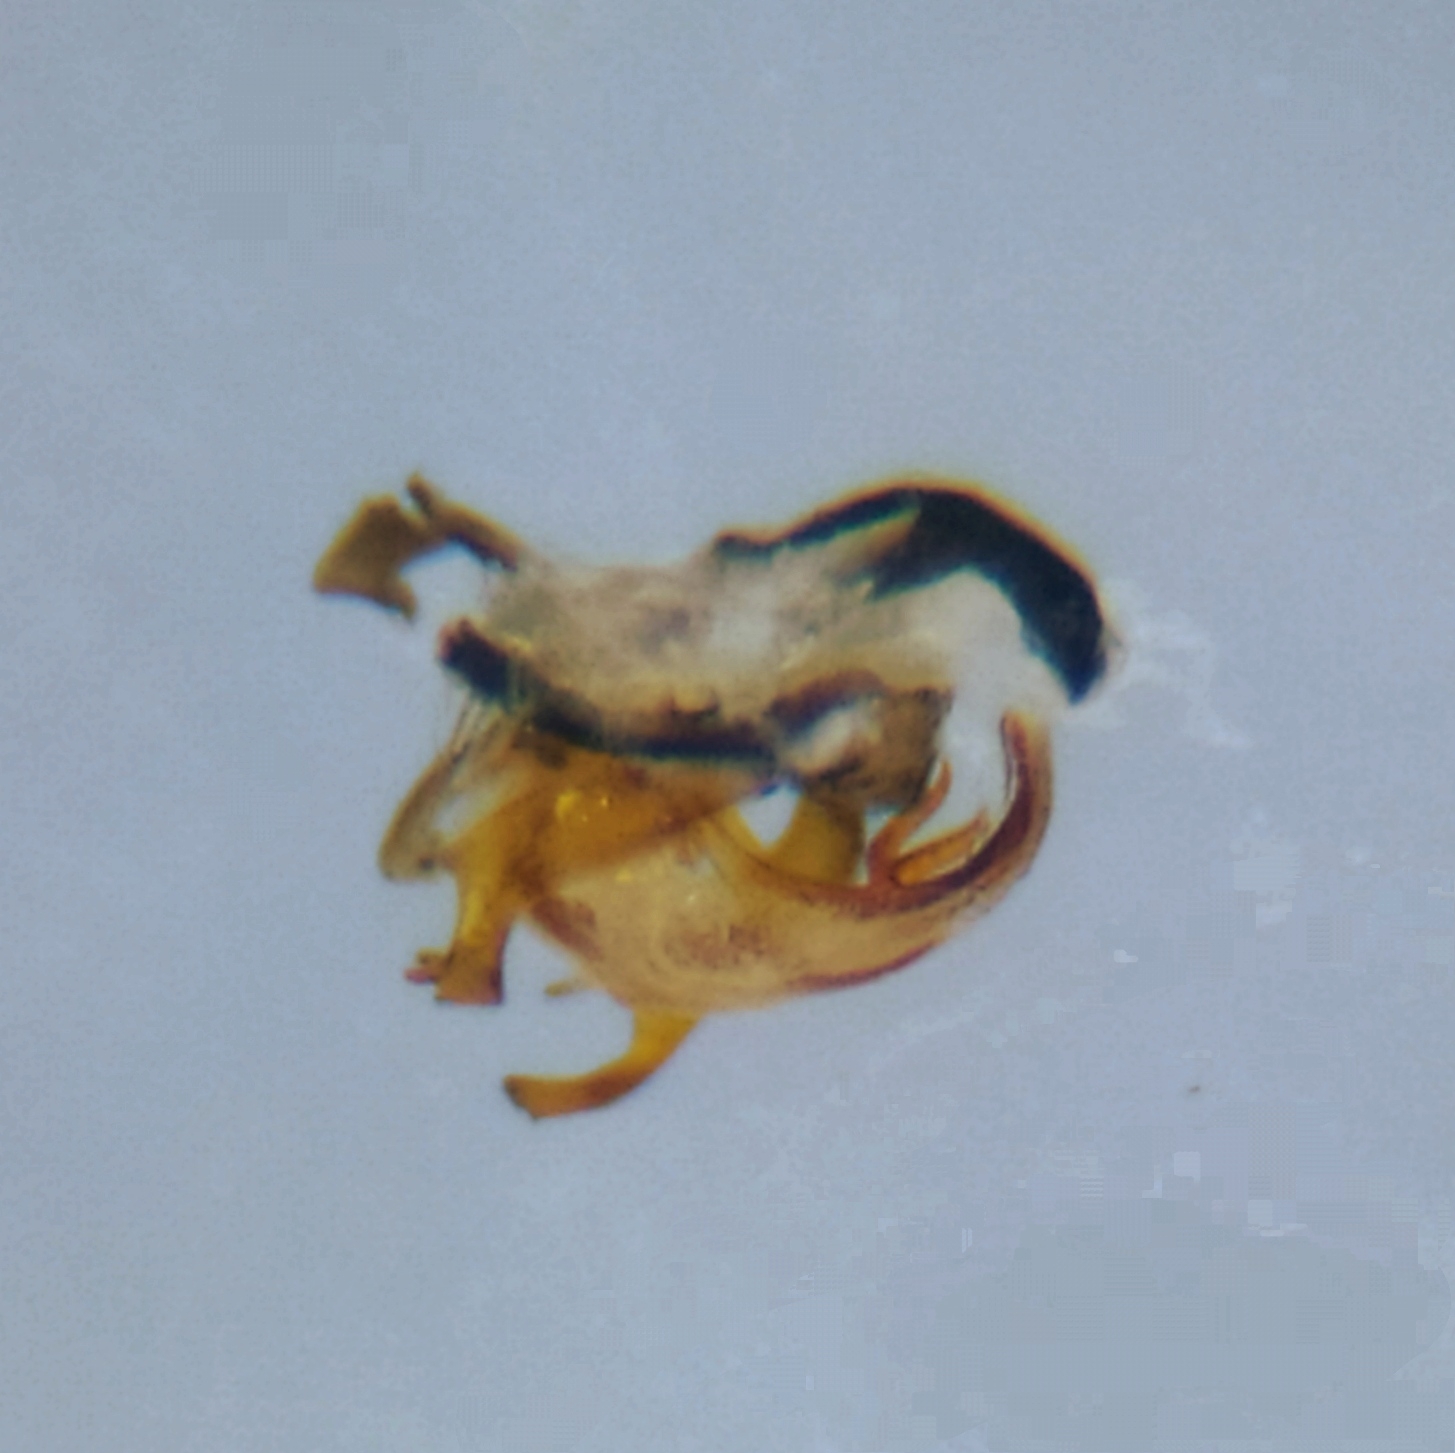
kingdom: Animalia
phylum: Arthropoda
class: Insecta
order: Diptera
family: Drosophilidae
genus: Phortica
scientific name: Phortica variegata
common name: Variegated fruit-fly
